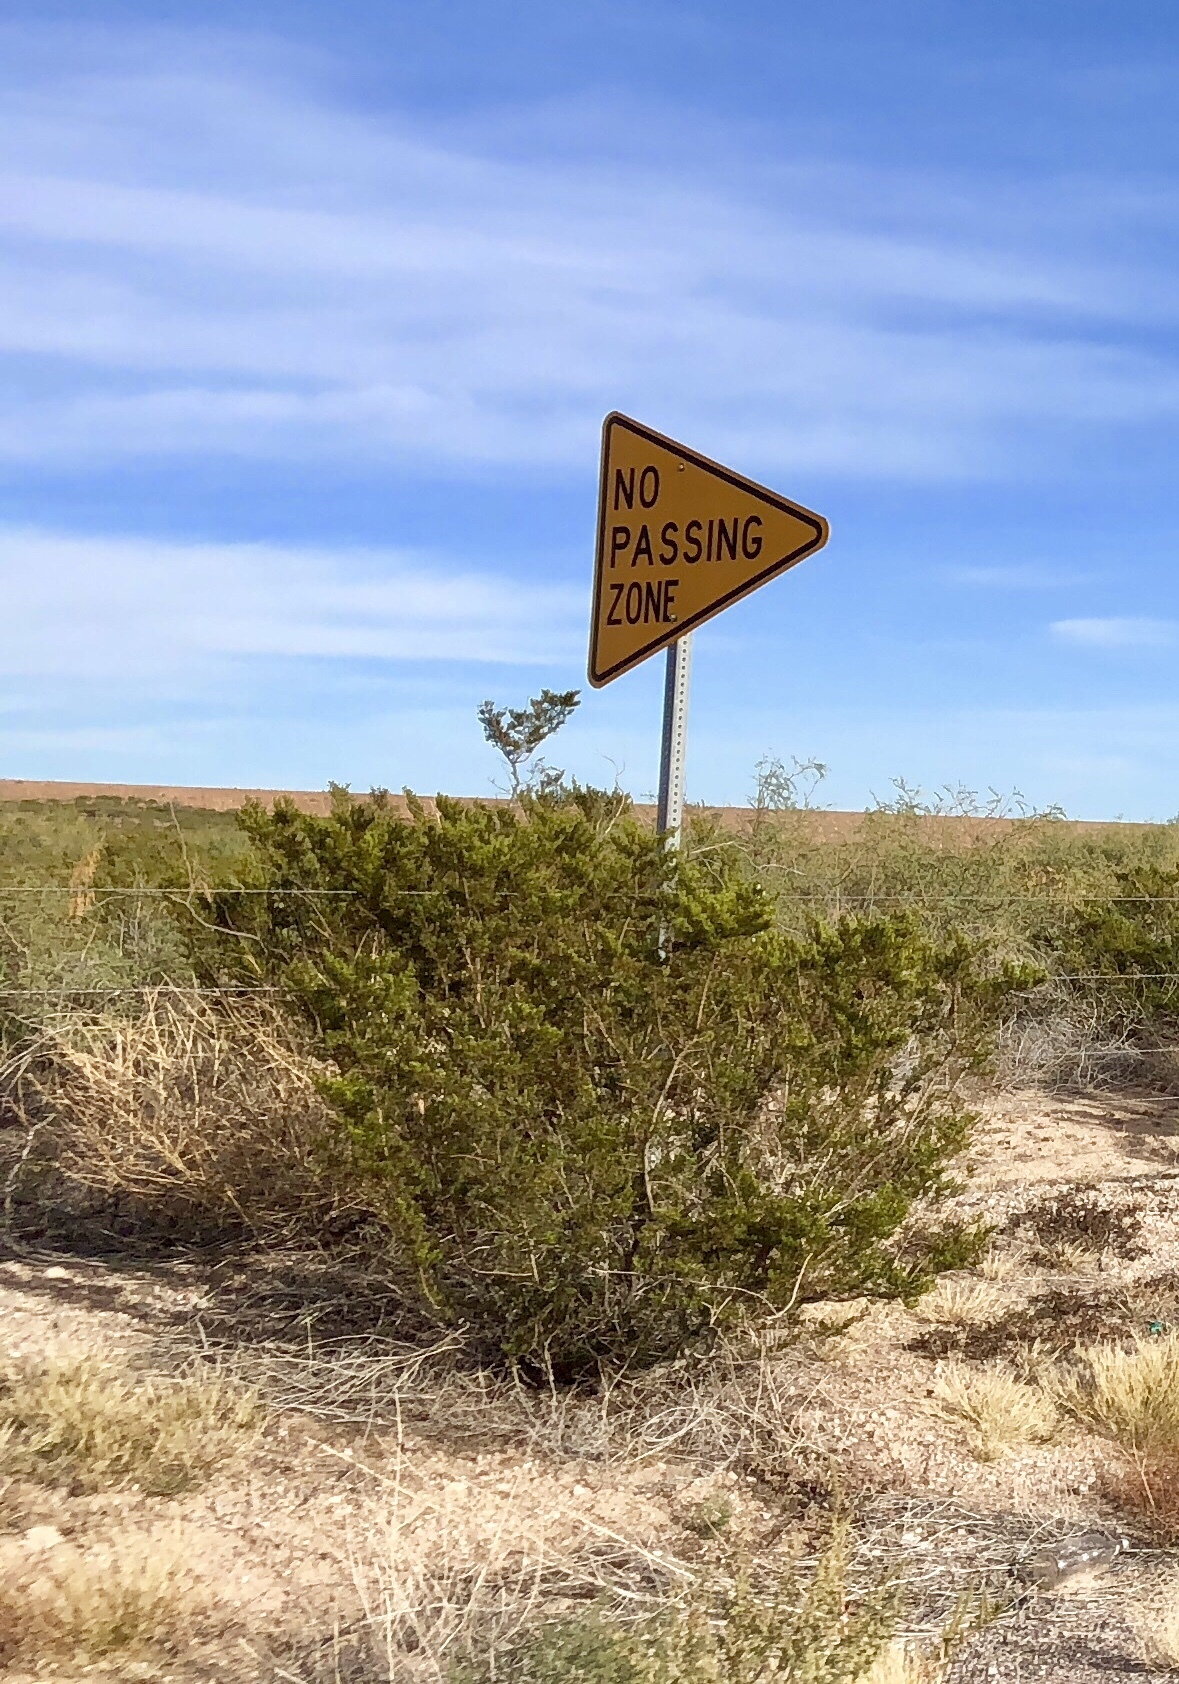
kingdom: Plantae
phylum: Tracheophyta
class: Magnoliopsida
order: Zygophyllales
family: Zygophyllaceae
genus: Larrea
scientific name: Larrea tridentata
